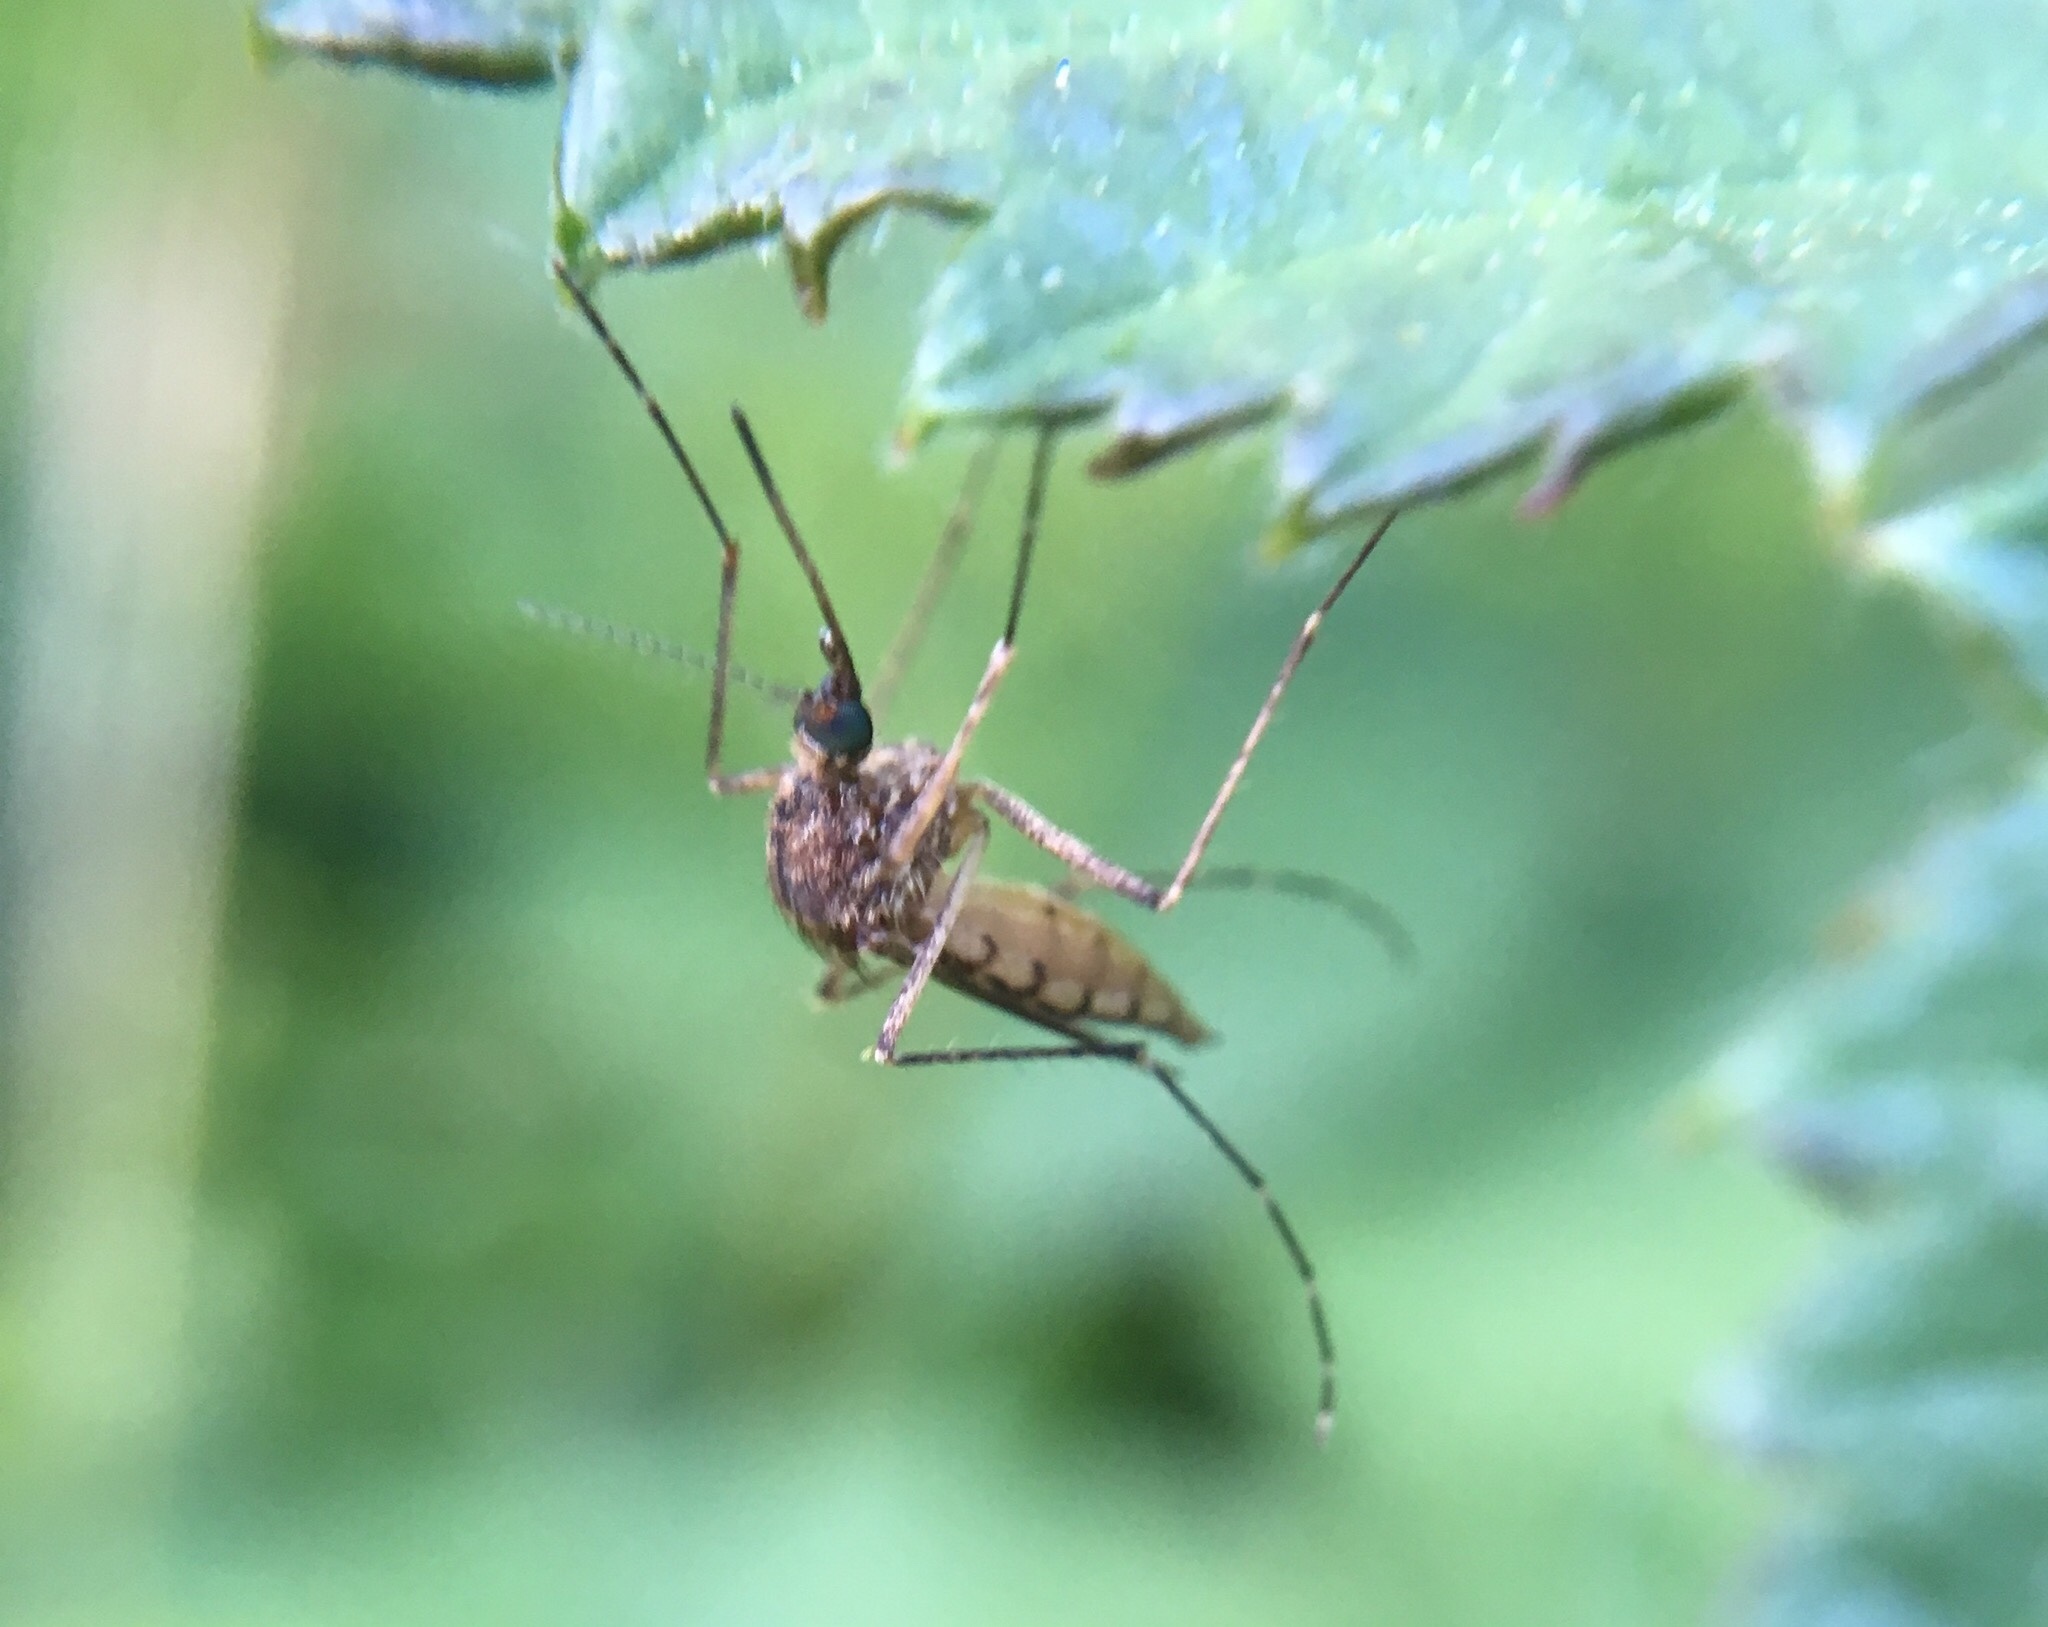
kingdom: Animalia
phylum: Arthropoda
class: Insecta
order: Diptera
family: Culicidae
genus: Aedes
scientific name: Aedes vexans
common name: Inland floodwater mosquito
